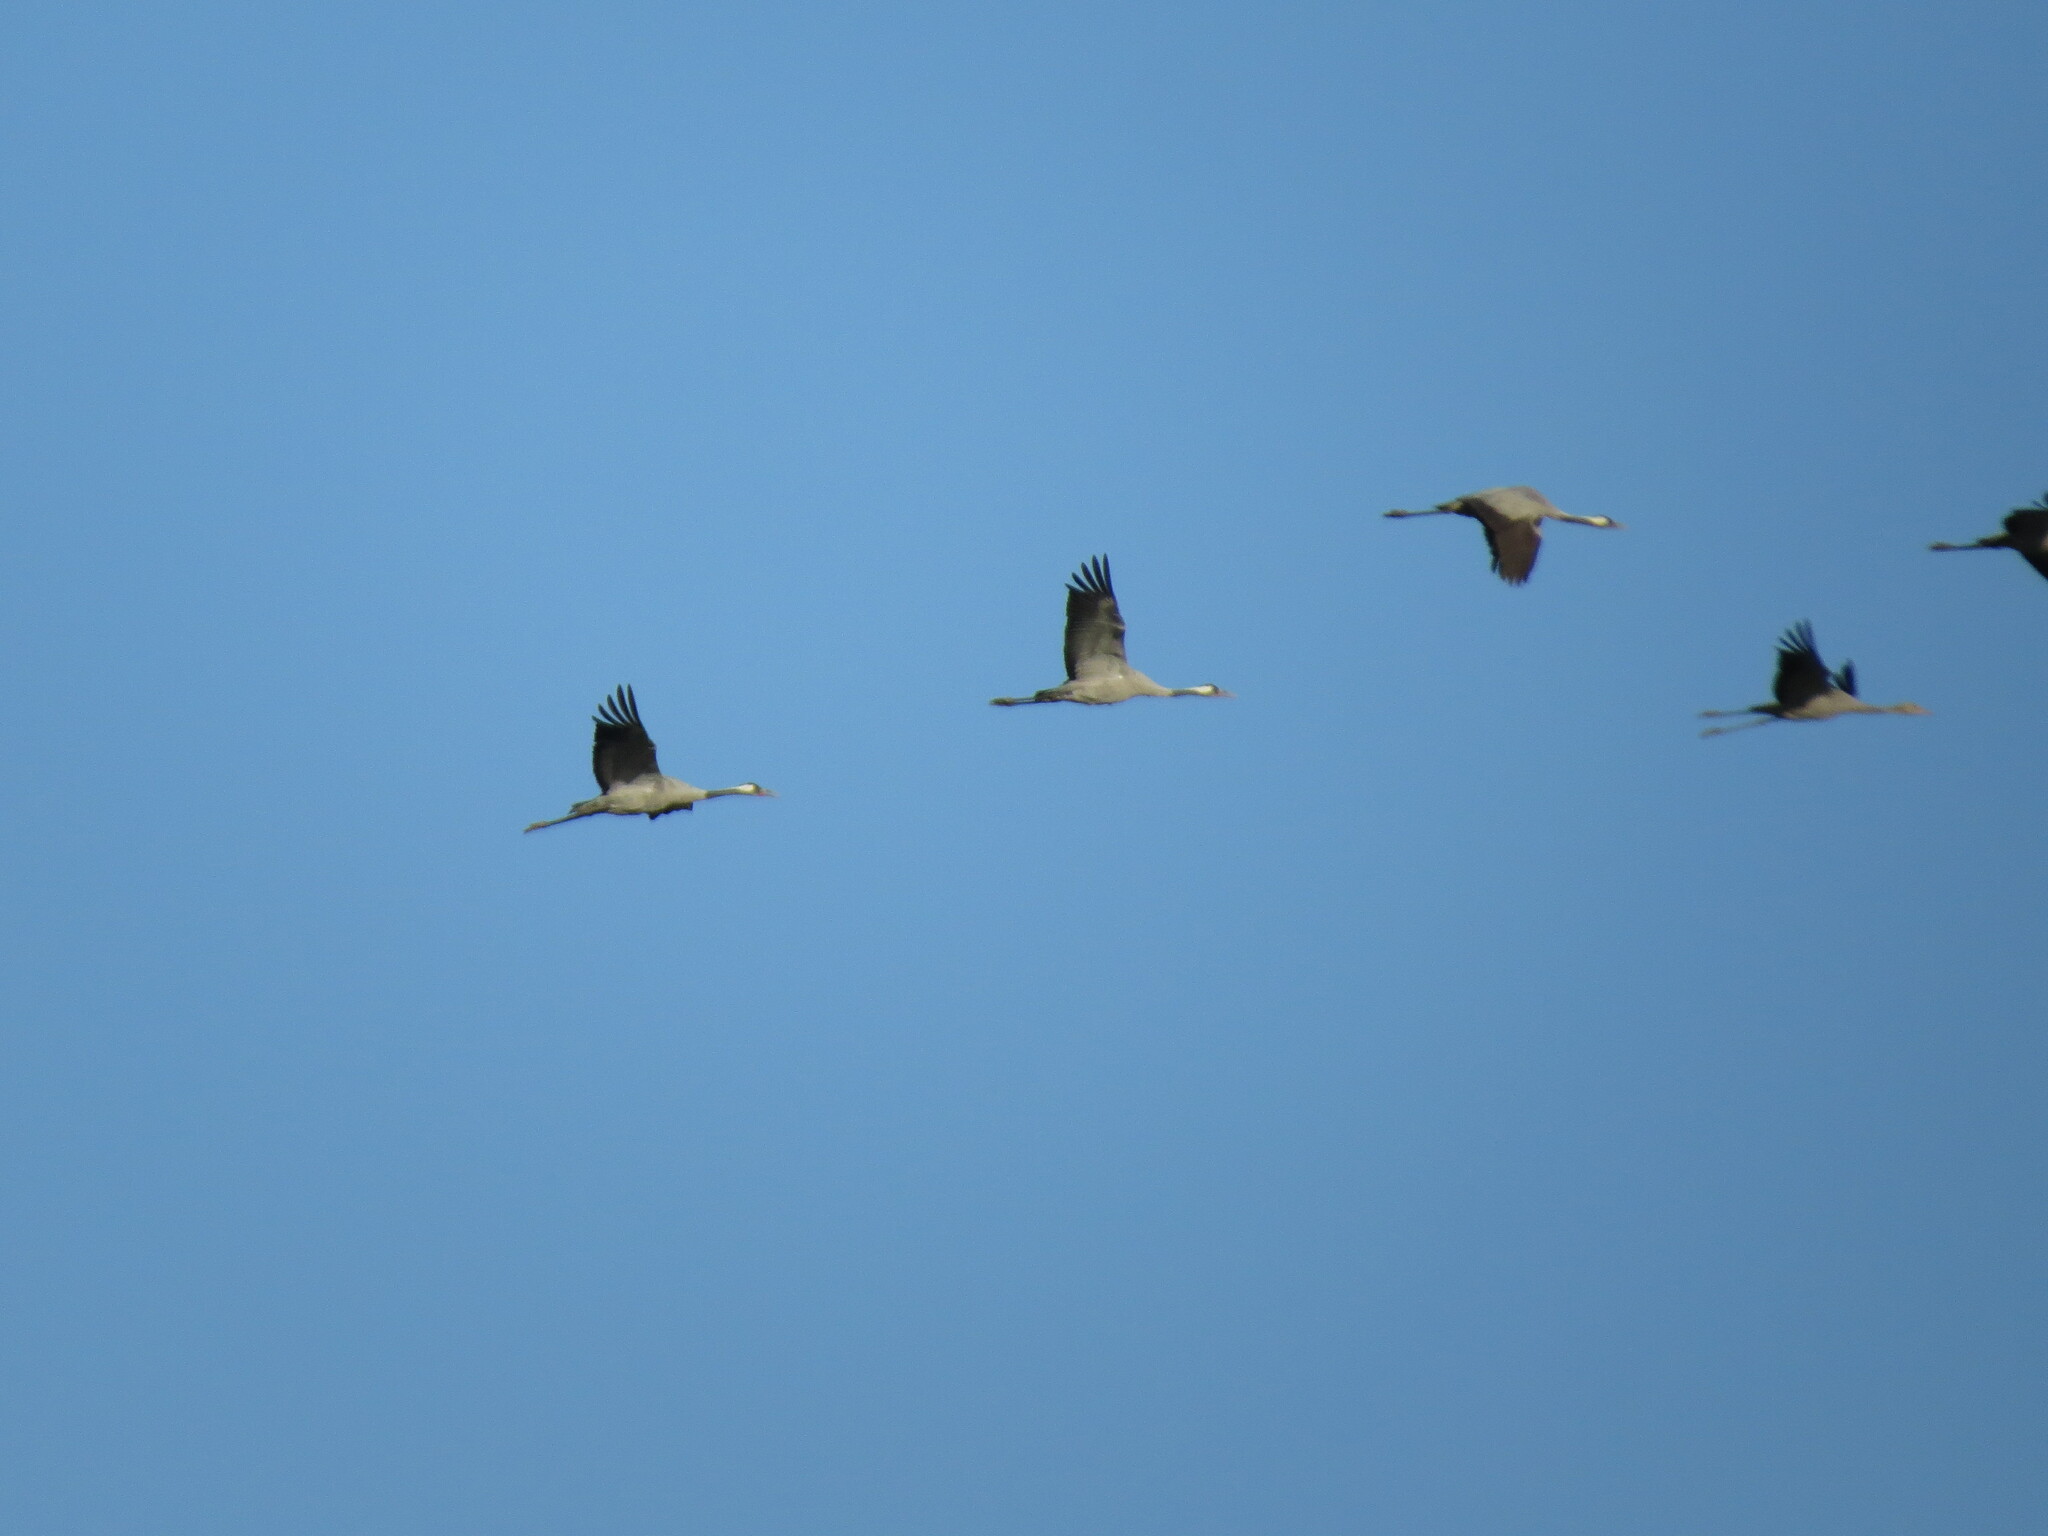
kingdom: Animalia
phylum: Chordata
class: Aves
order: Gruiformes
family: Gruidae
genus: Grus
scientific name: Grus grus
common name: Common crane
